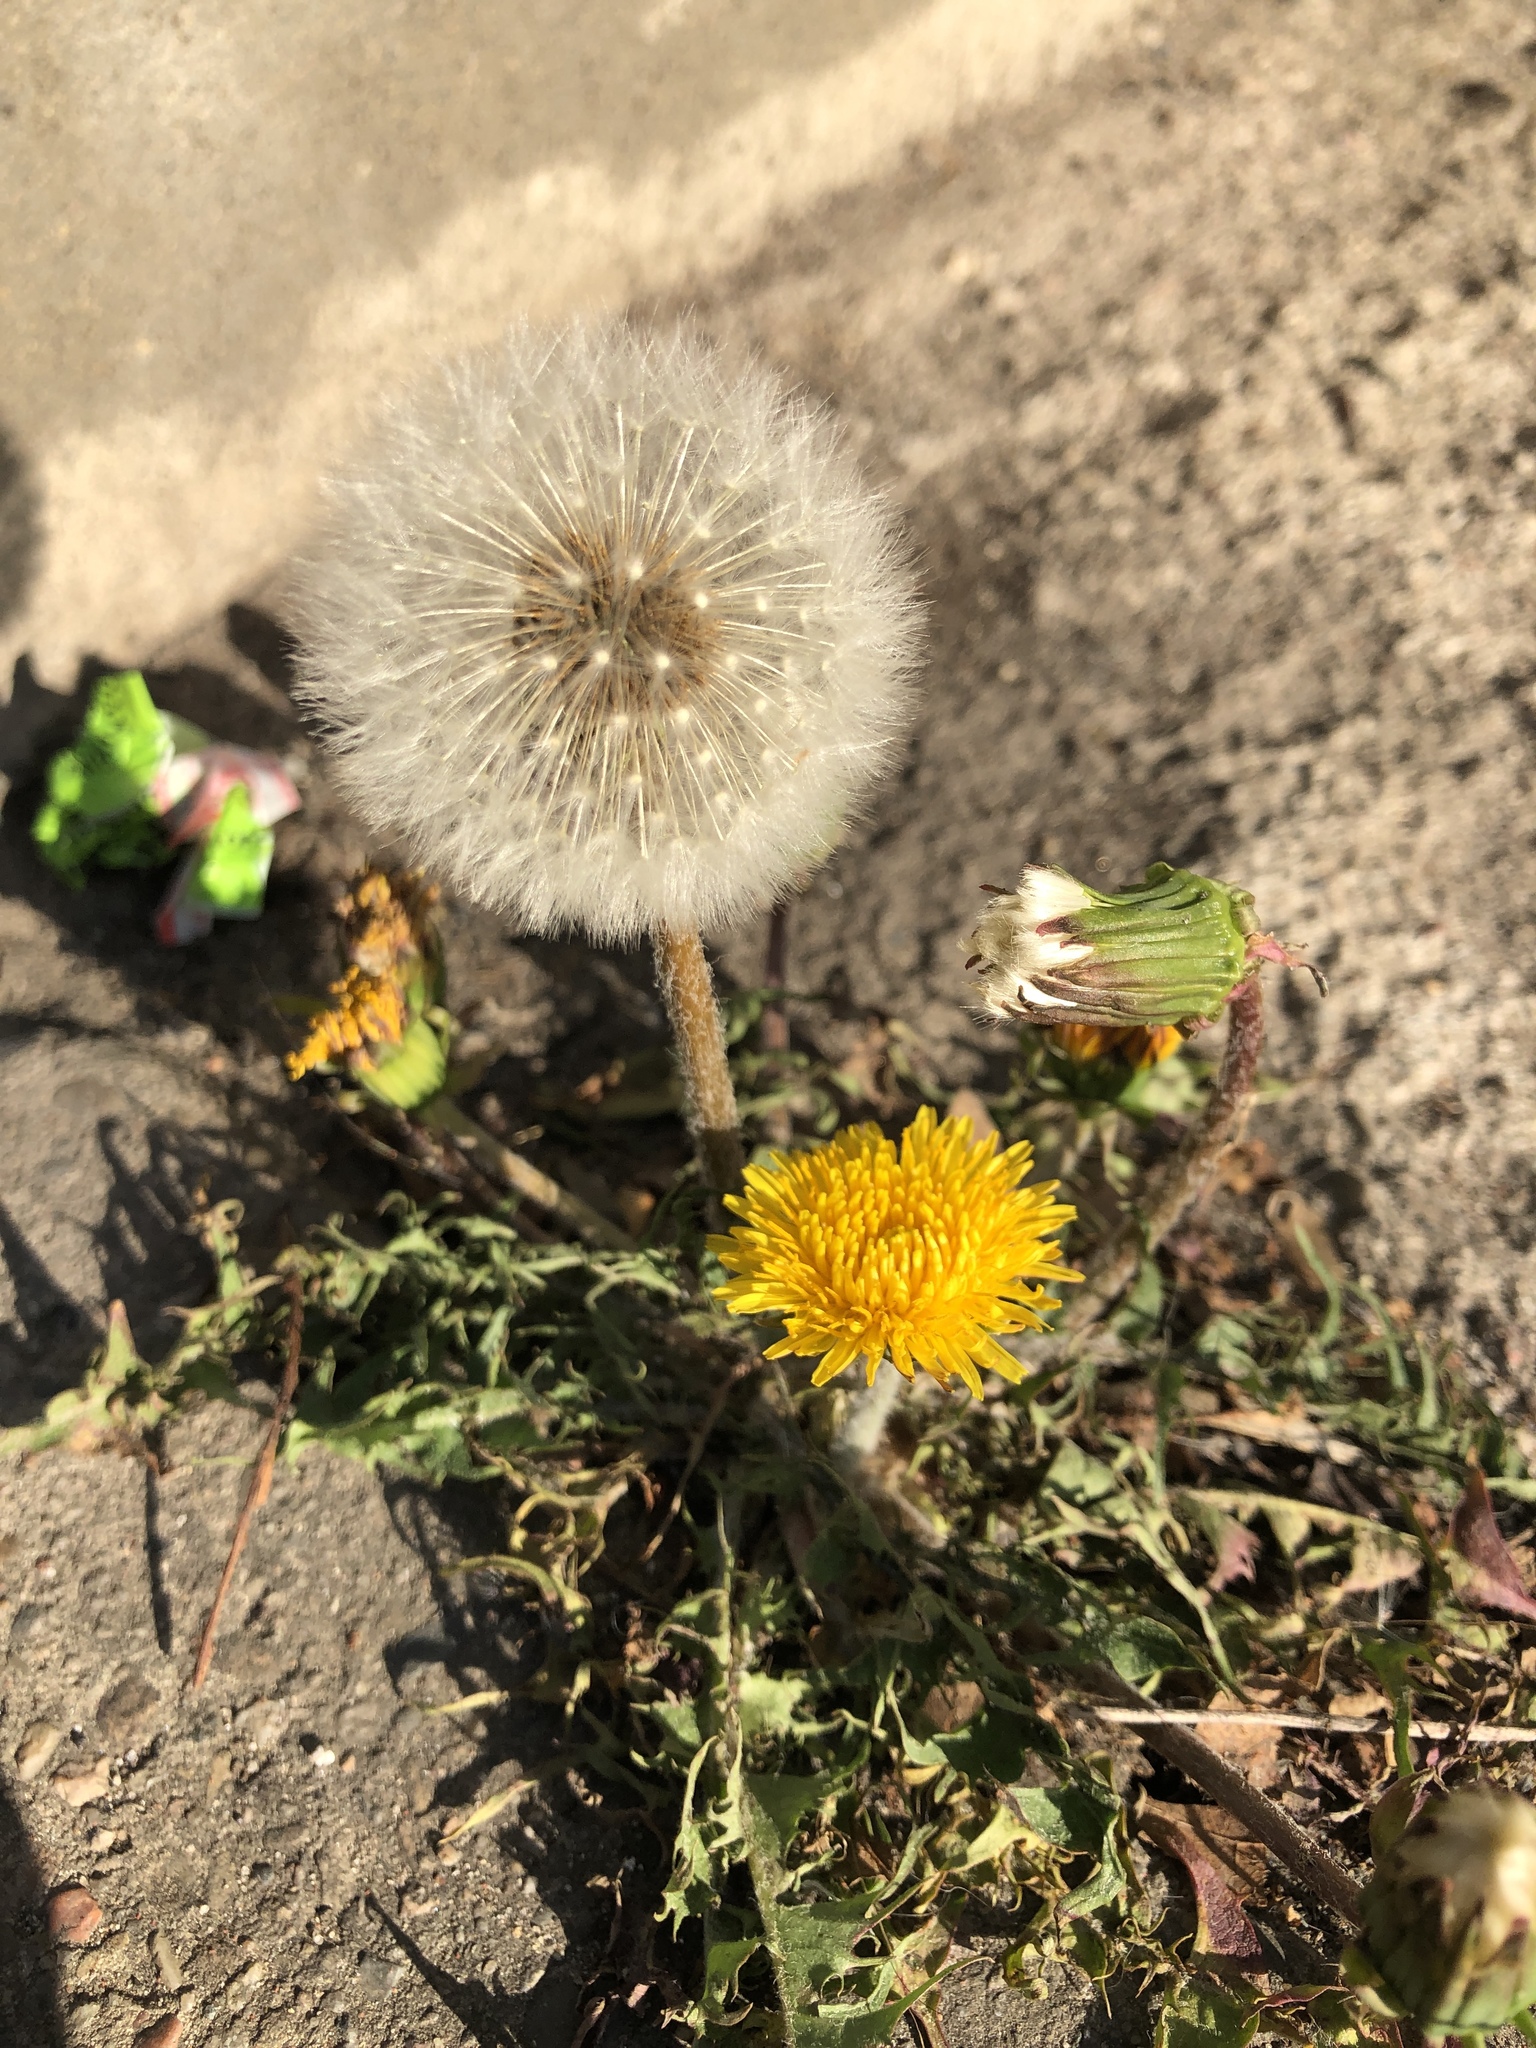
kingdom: Plantae
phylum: Tracheophyta
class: Magnoliopsida
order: Asterales
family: Asteraceae
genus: Taraxacum
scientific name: Taraxacum officinale
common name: Common dandelion
